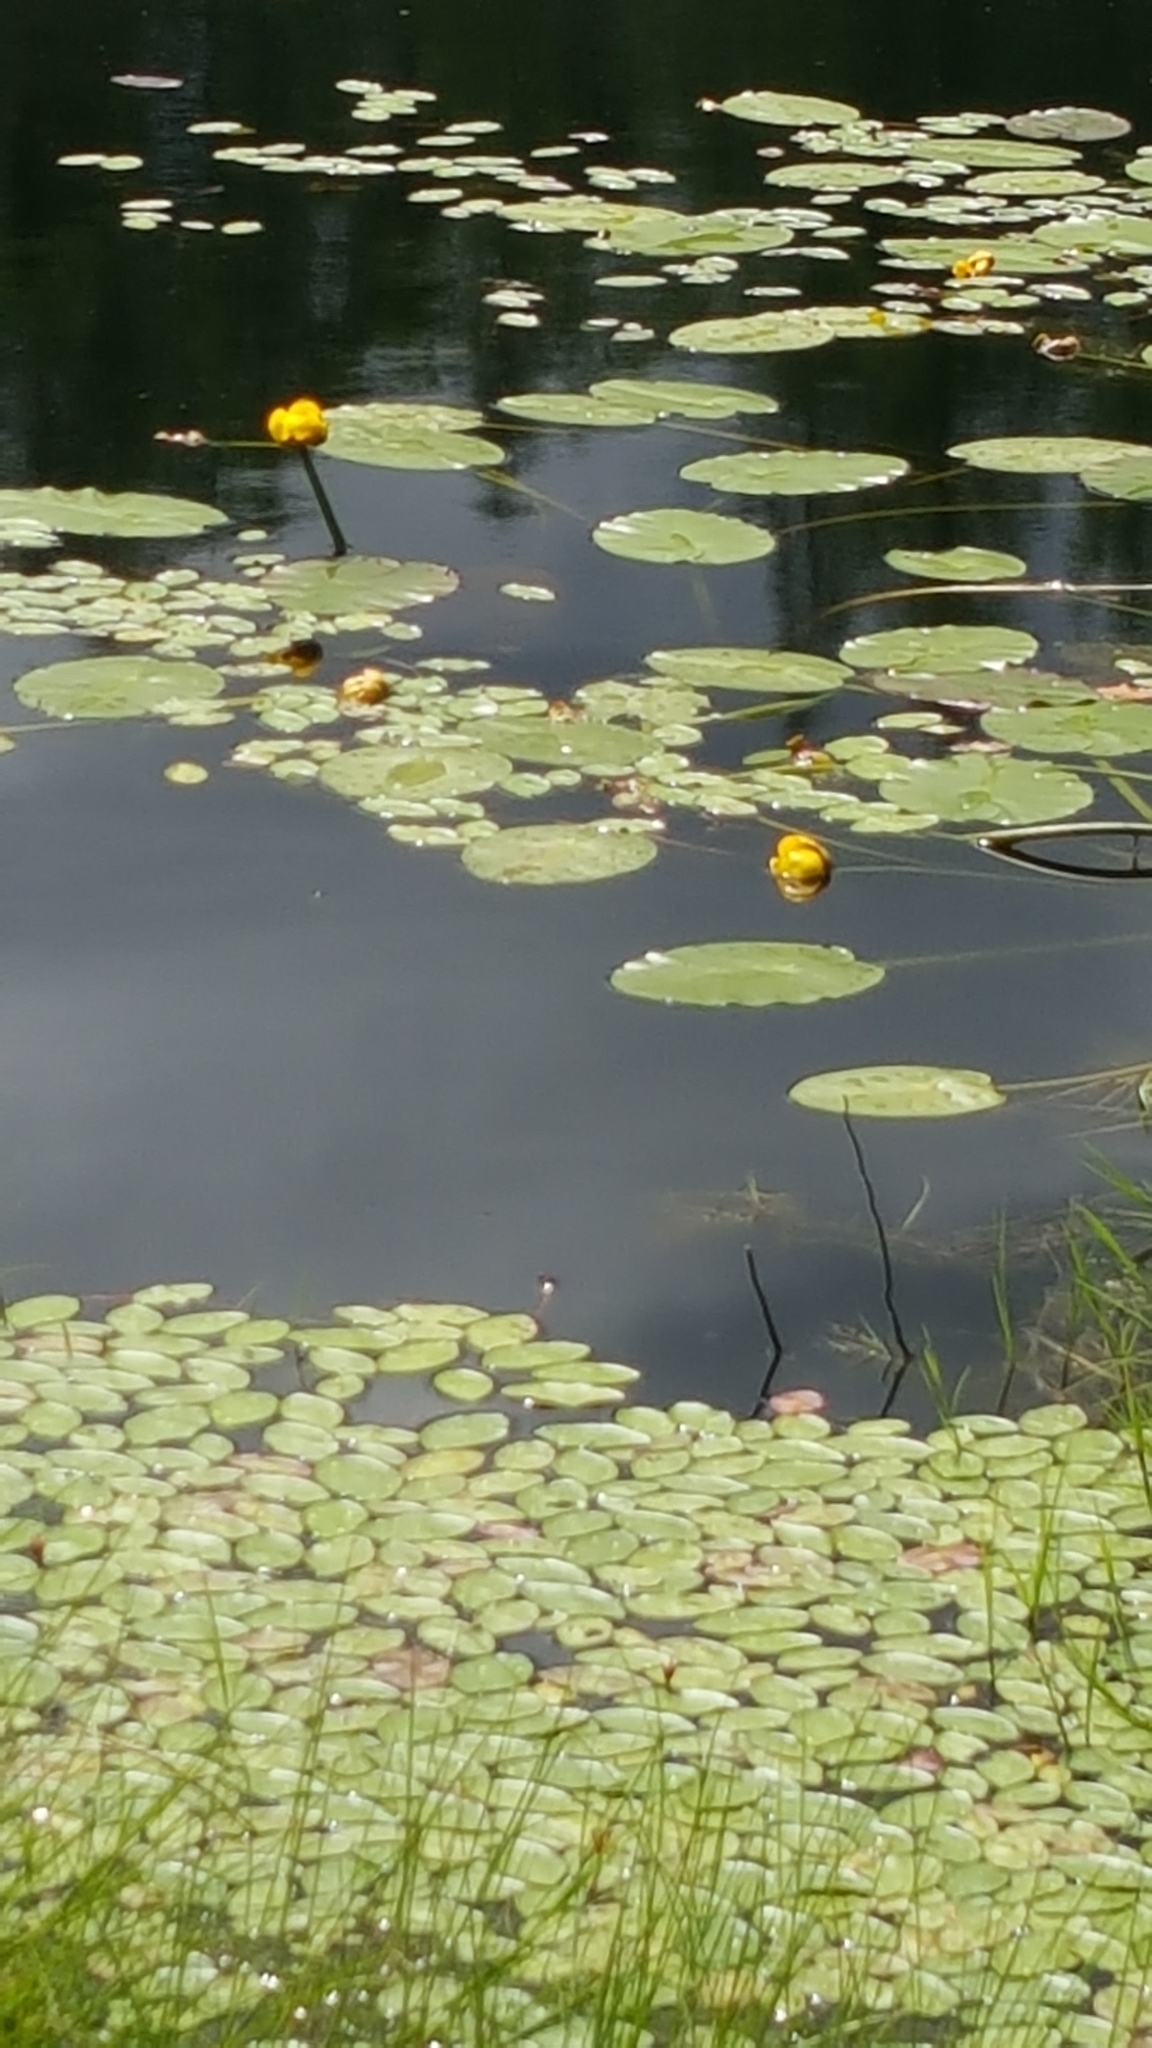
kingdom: Plantae
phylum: Tracheophyta
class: Magnoliopsida
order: Nymphaeales
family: Nymphaeaceae
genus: Nuphar
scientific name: Nuphar variegata
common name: Beaver-root
